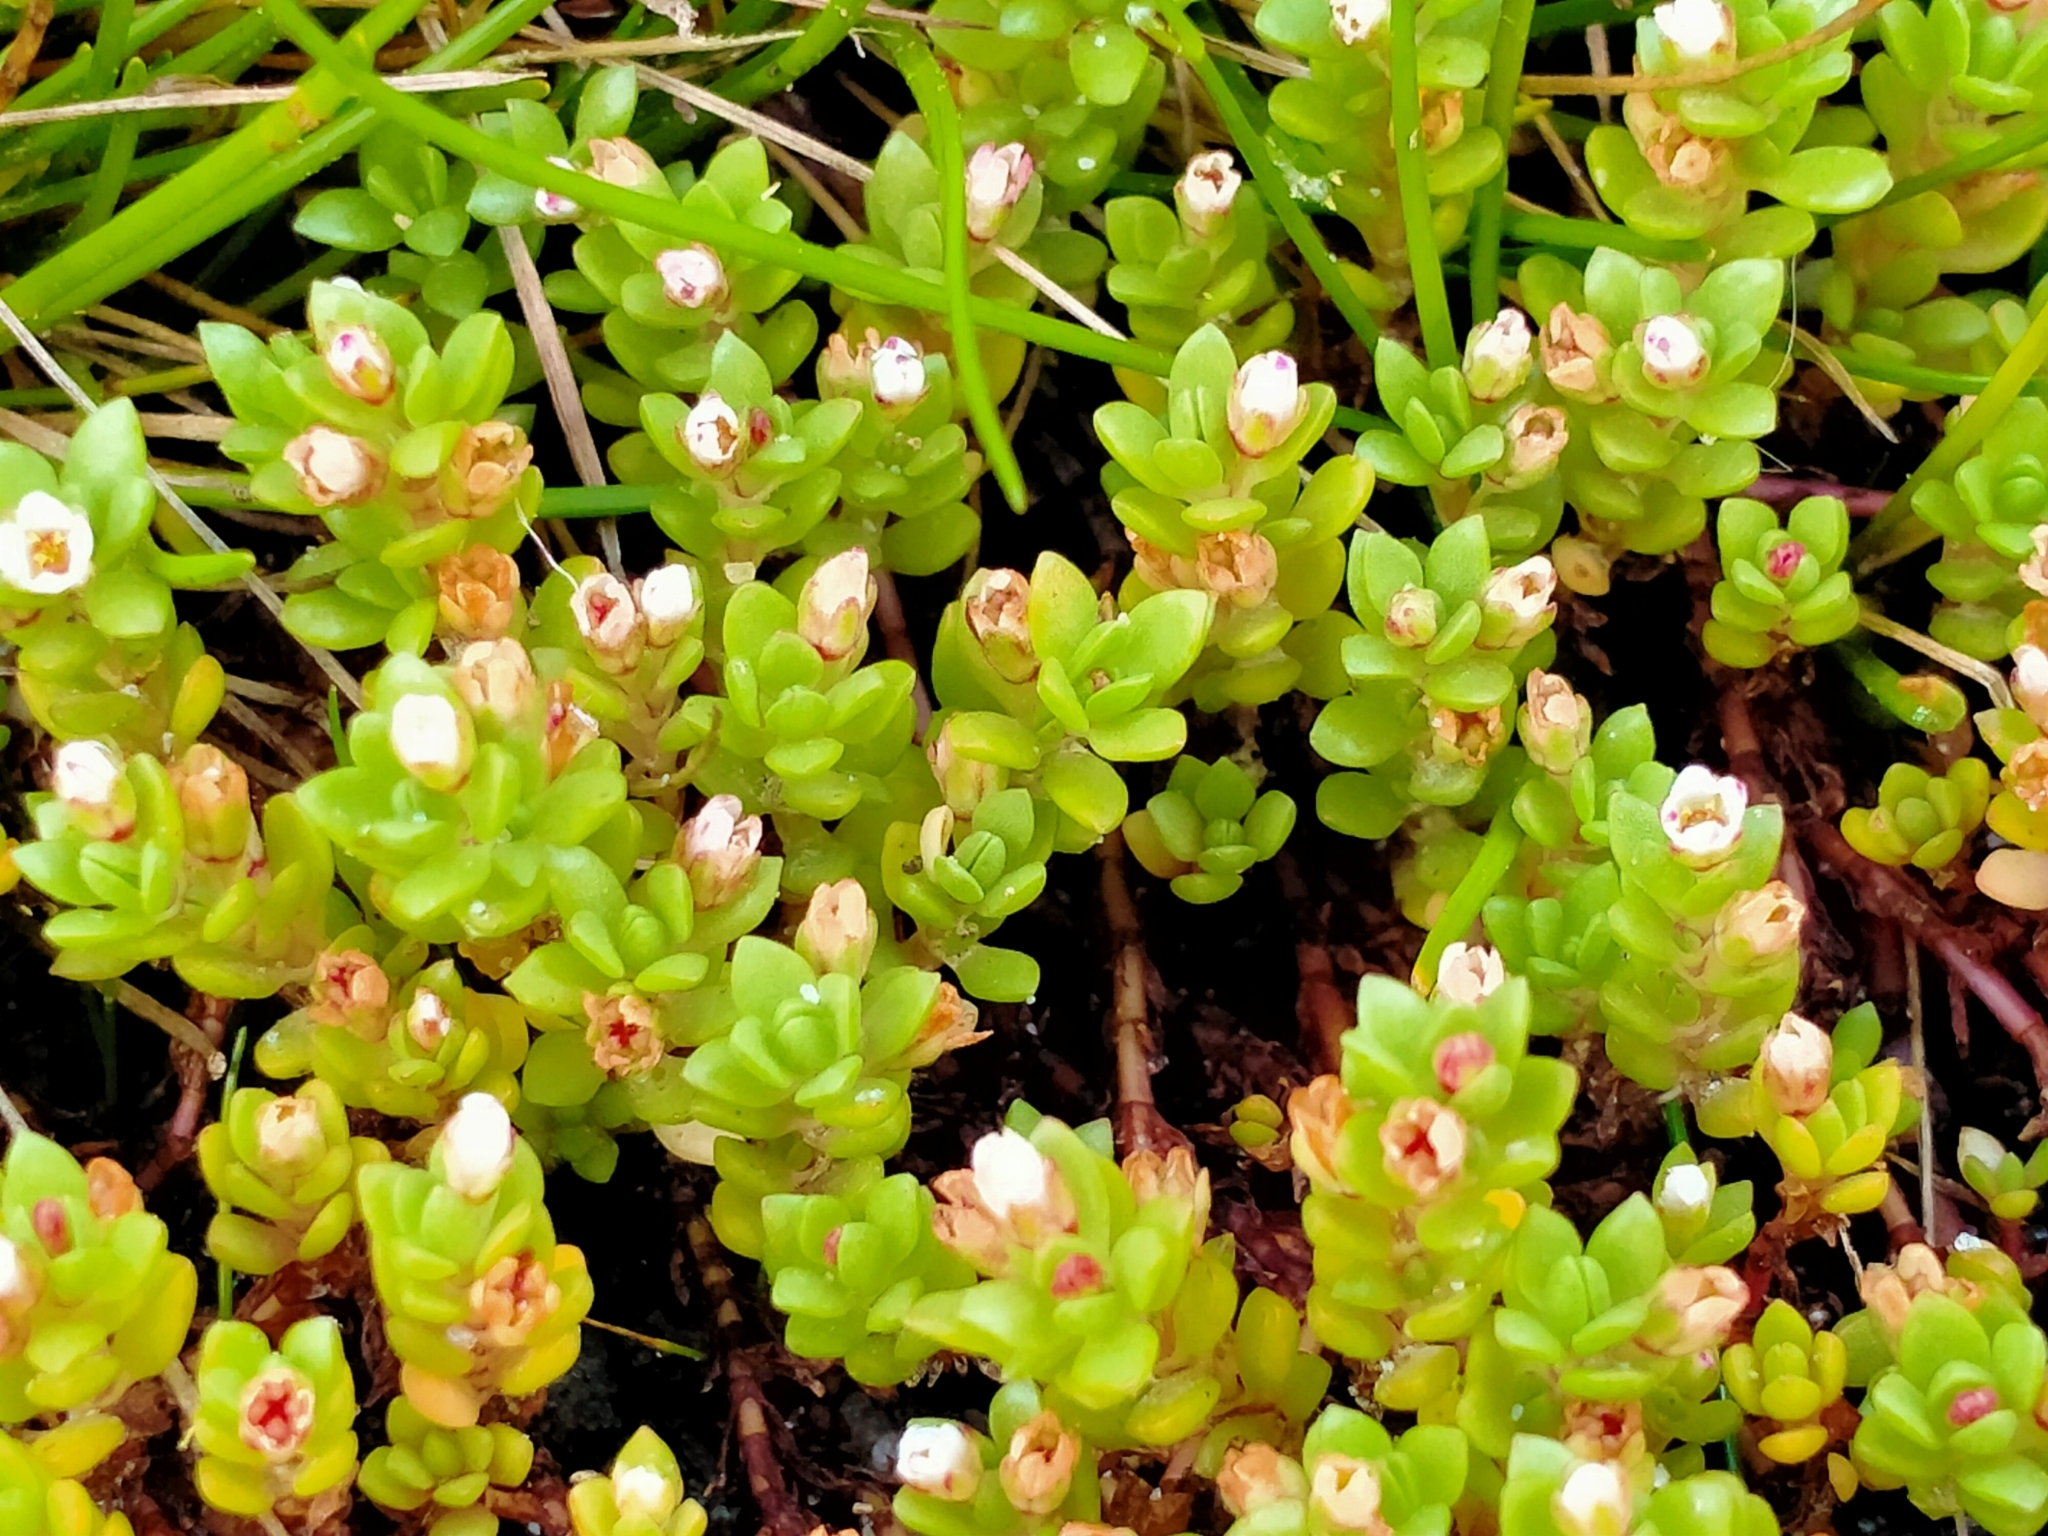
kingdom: Plantae
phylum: Tracheophyta
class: Magnoliopsida
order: Saxifragales
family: Crassulaceae
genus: Crassula
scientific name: Crassula moschata
